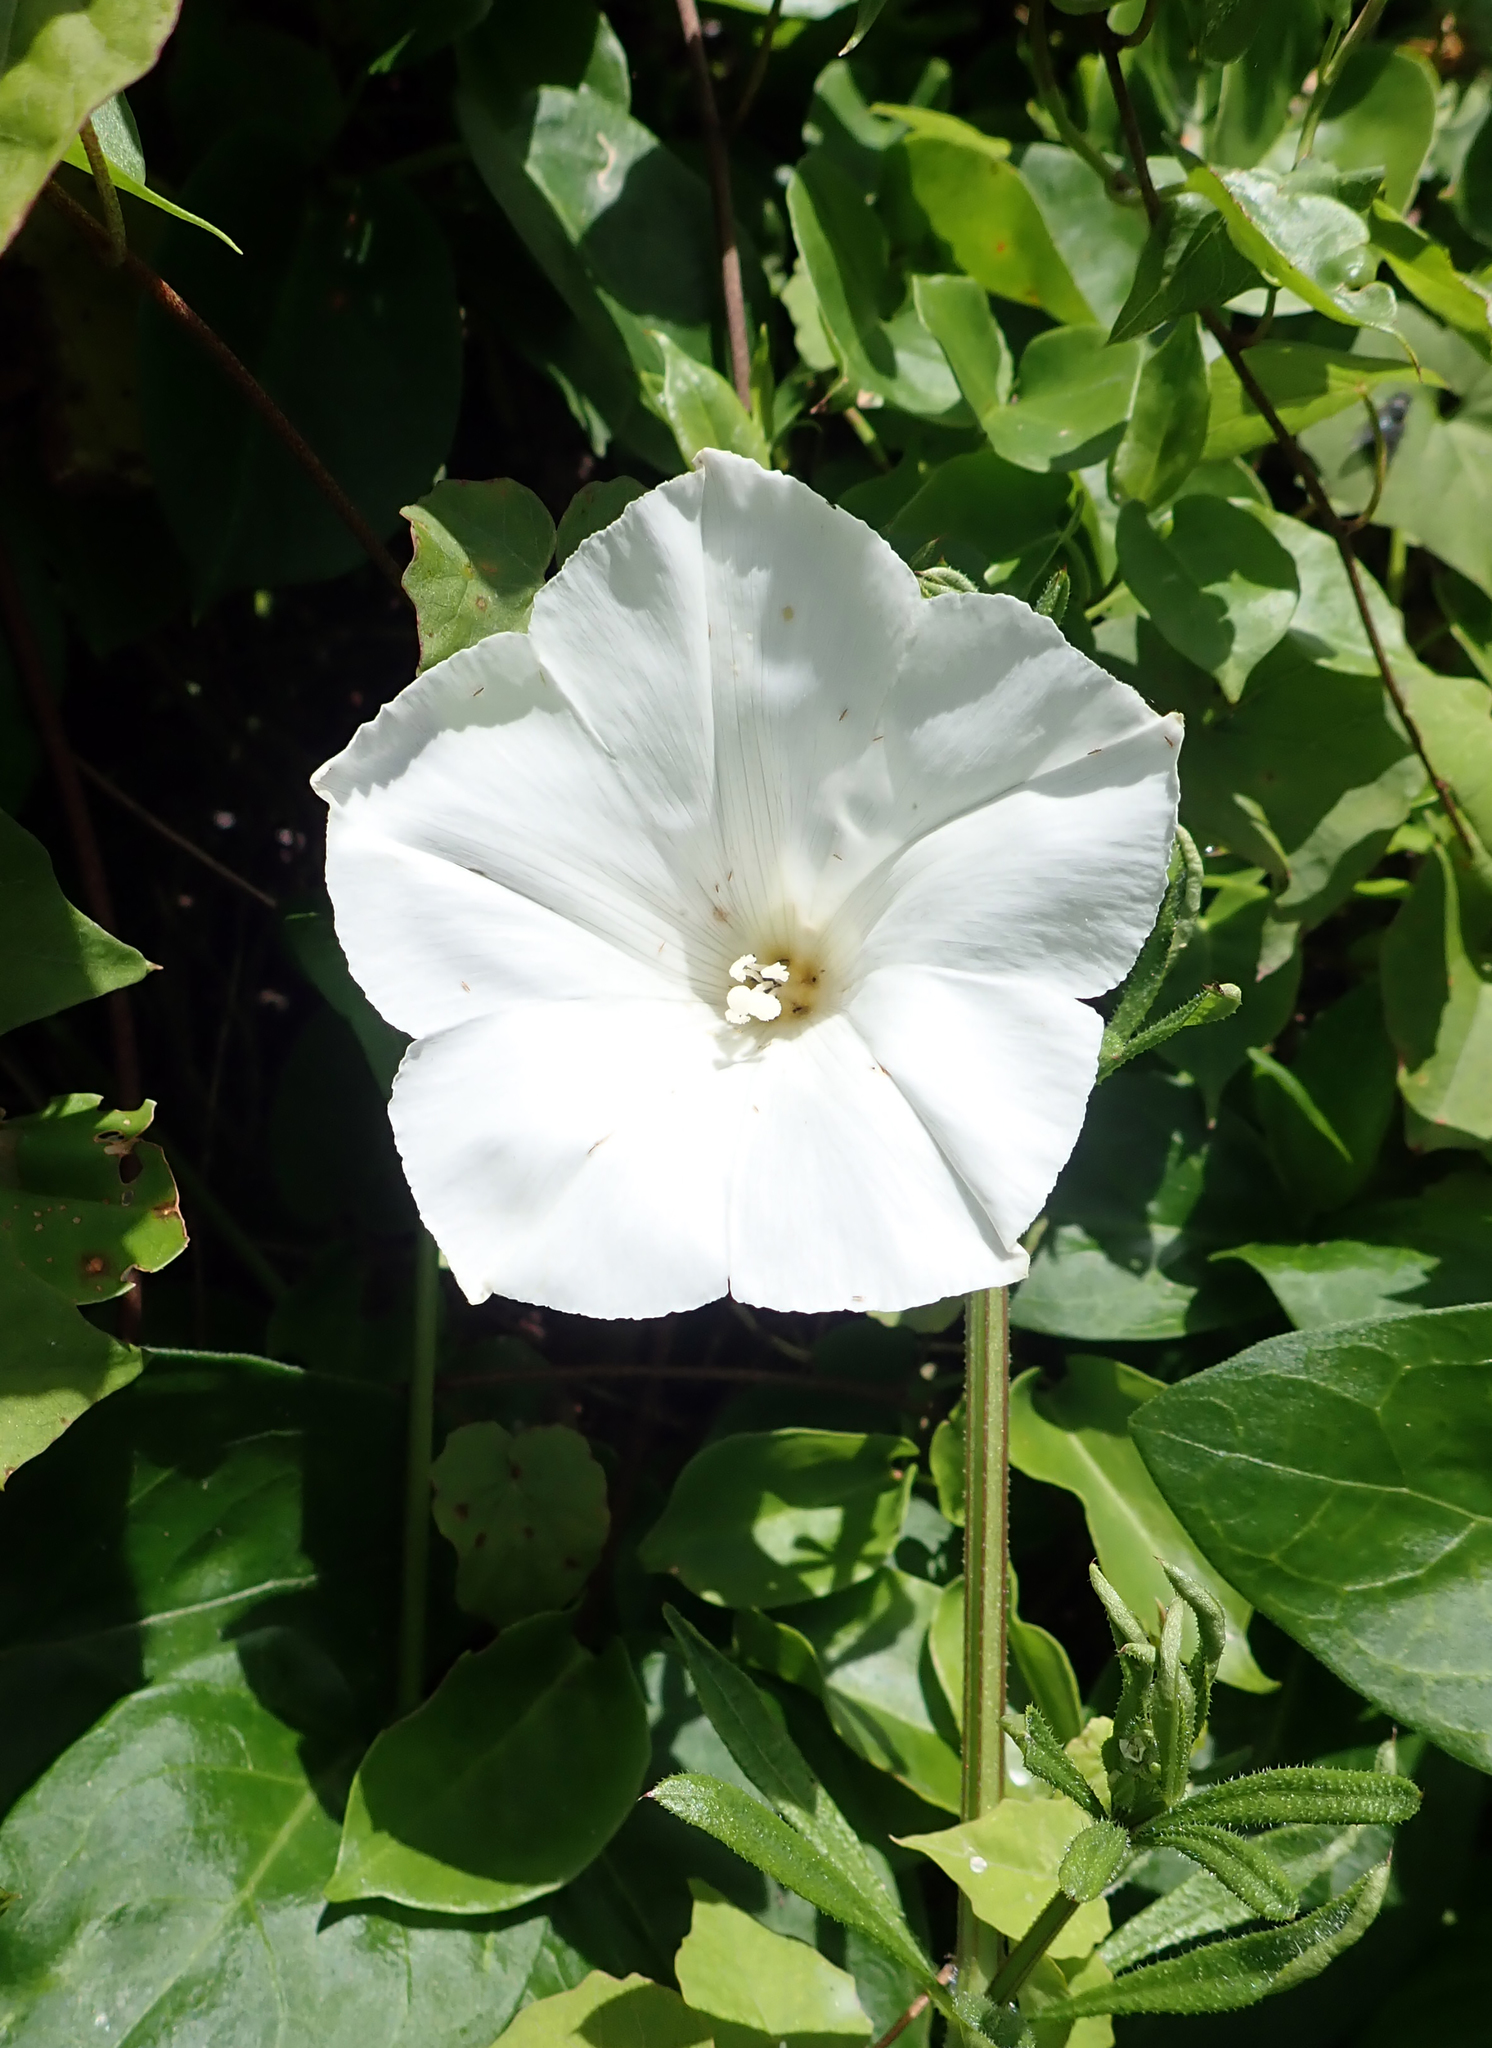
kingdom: Plantae
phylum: Tracheophyta
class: Magnoliopsida
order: Solanales
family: Convolvulaceae
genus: Calystegia
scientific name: Calystegia tuguriorum
